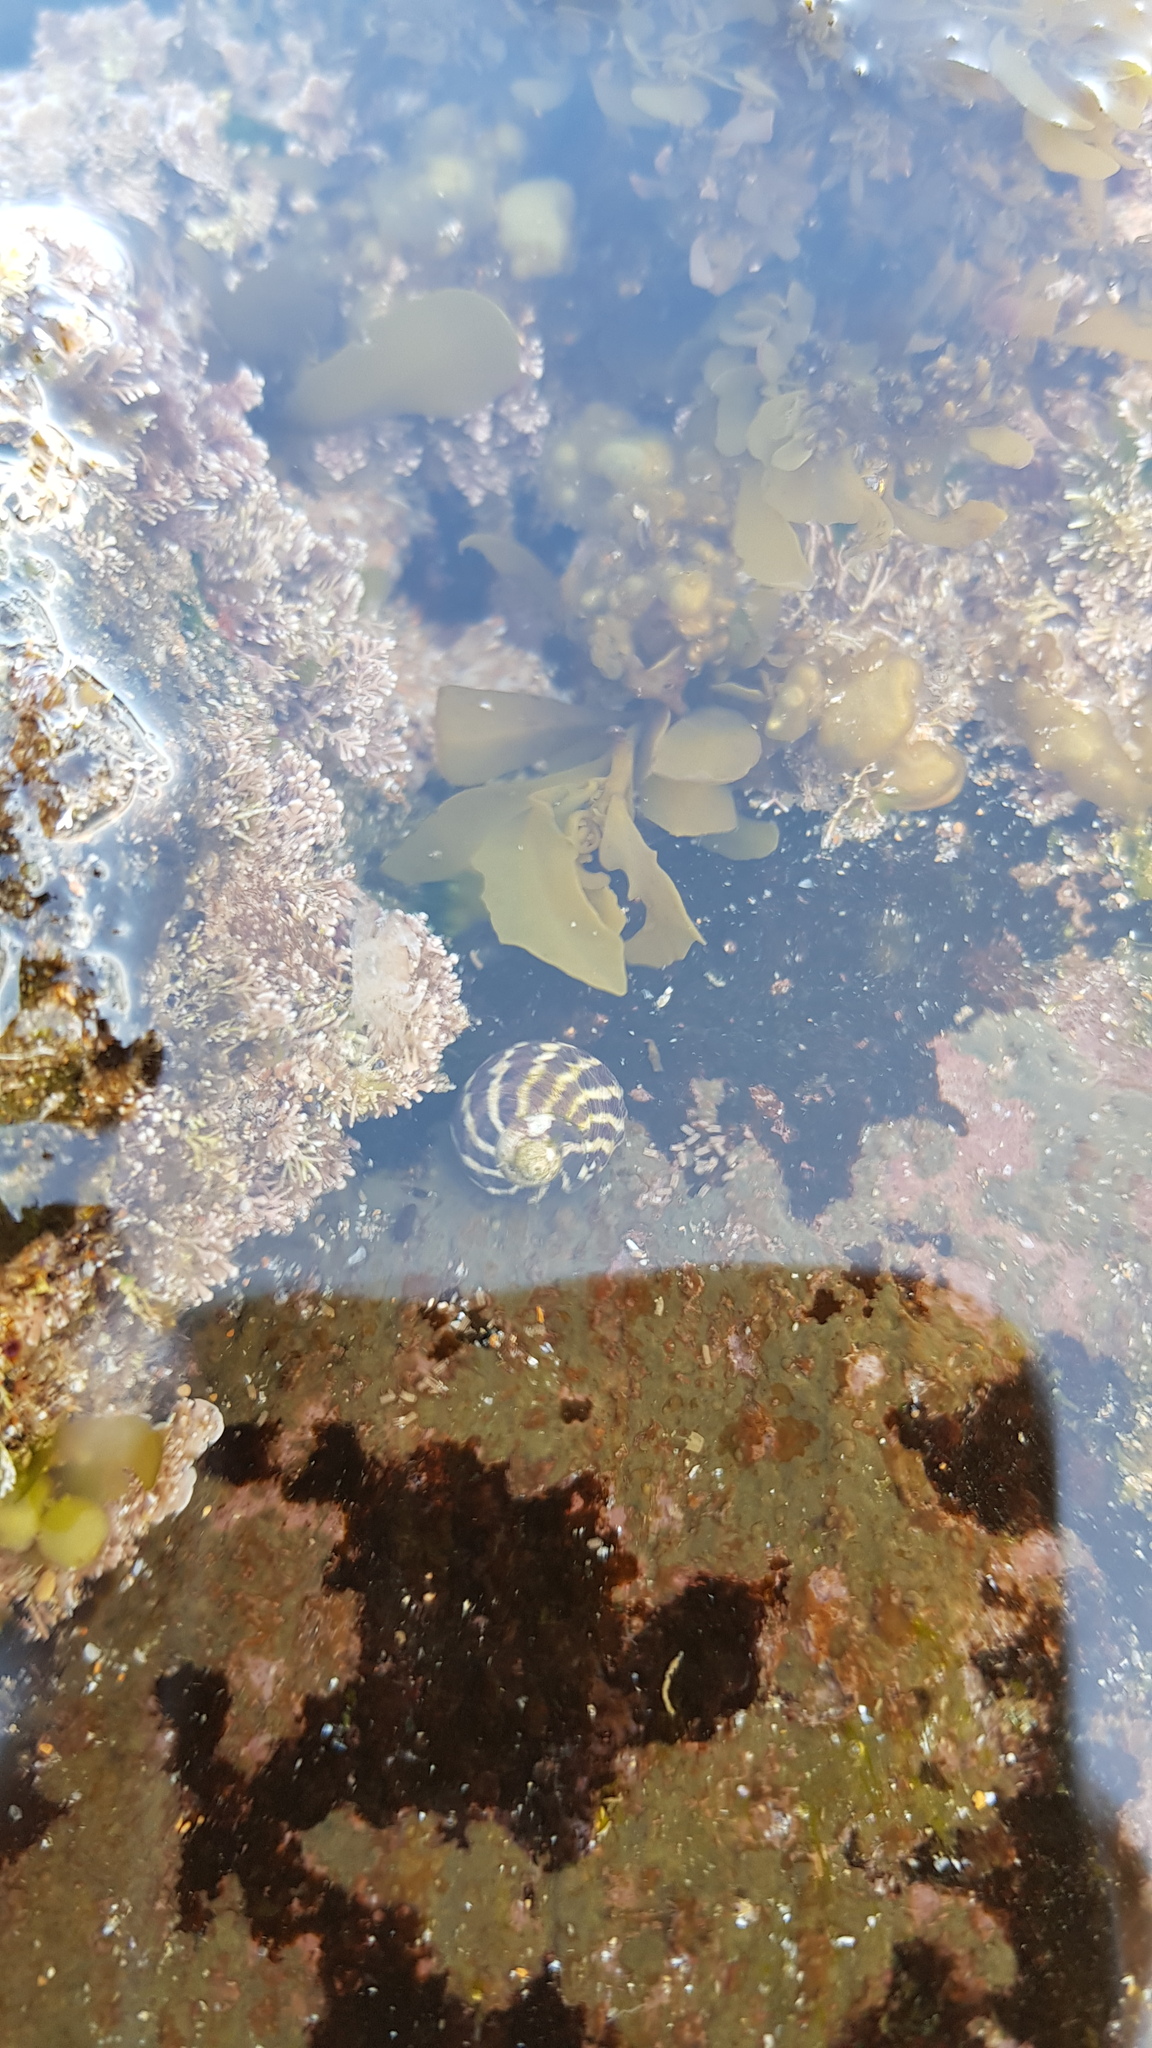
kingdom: Animalia
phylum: Mollusca
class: Gastropoda
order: Trochida
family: Trochidae
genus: Austrocochlea
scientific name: Austrocochlea porcata
